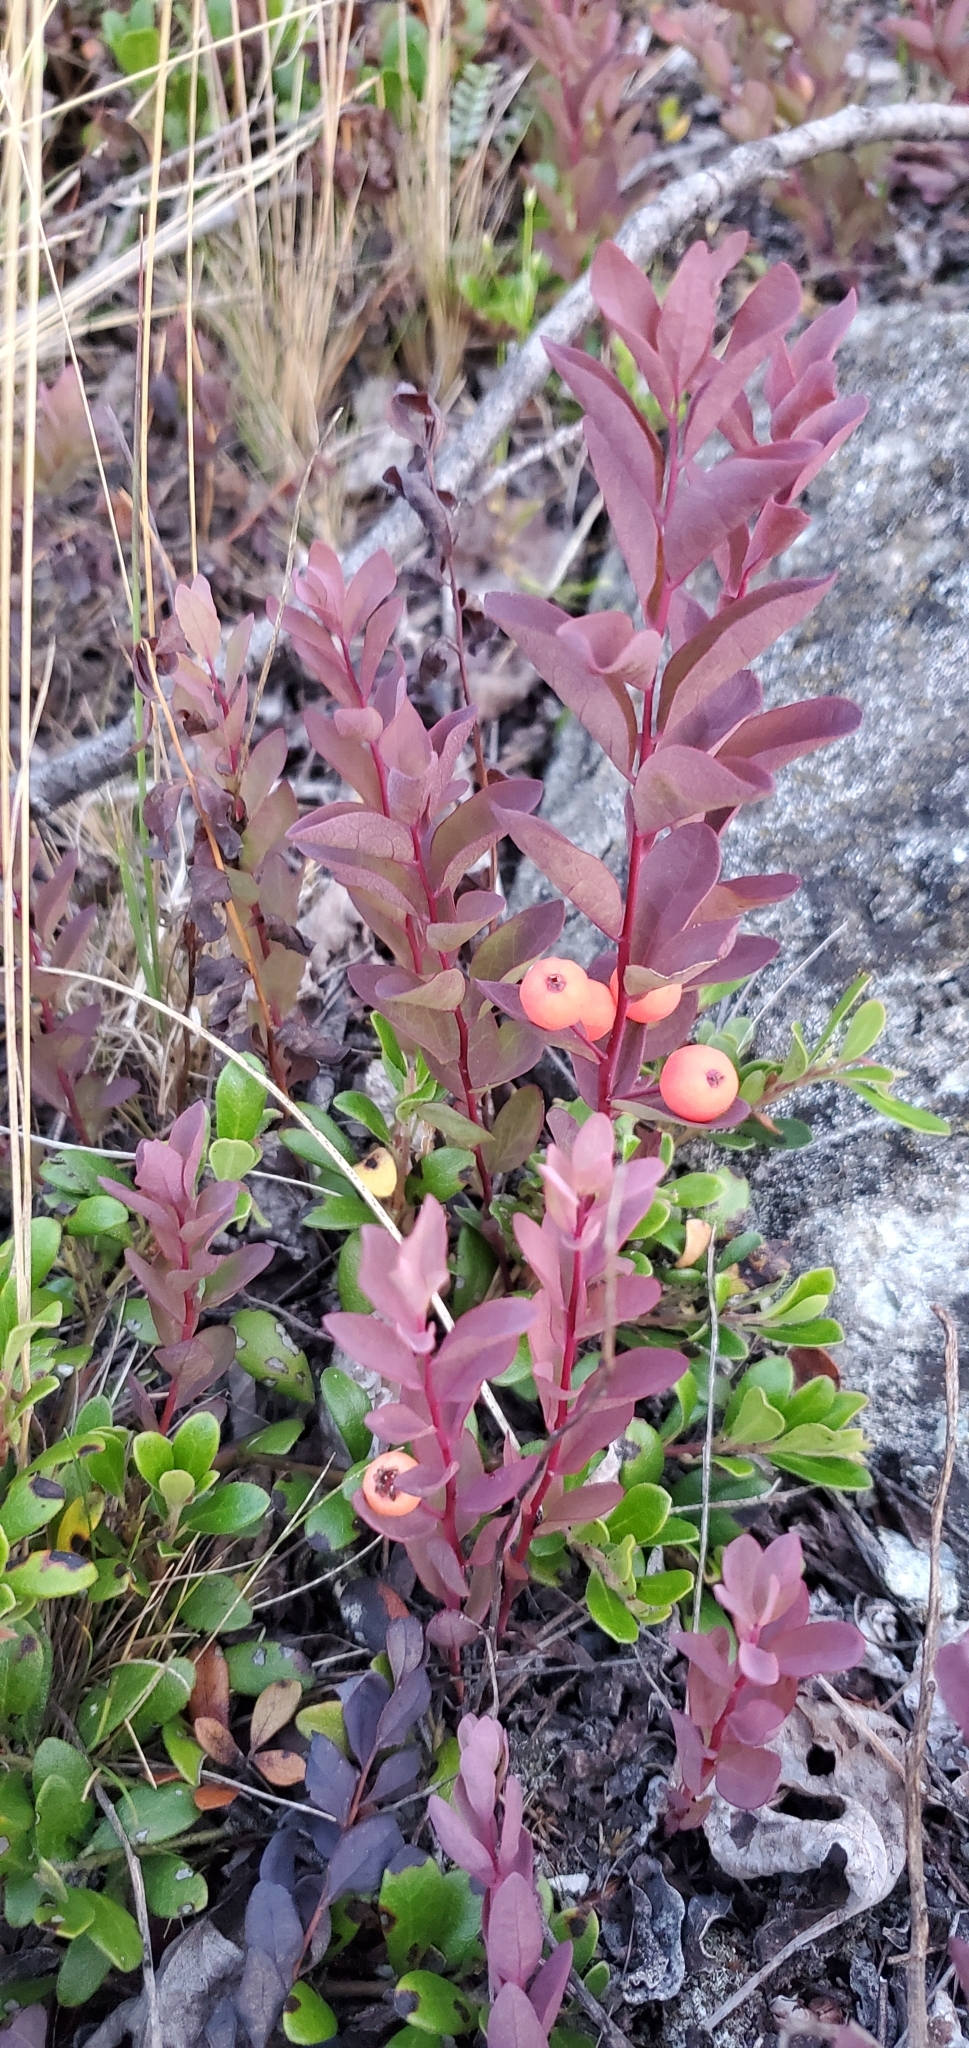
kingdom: Plantae
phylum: Tracheophyta
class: Magnoliopsida
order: Santalales
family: Comandraceae
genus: Geocaulon
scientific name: Geocaulon lividum
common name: Earthberry
